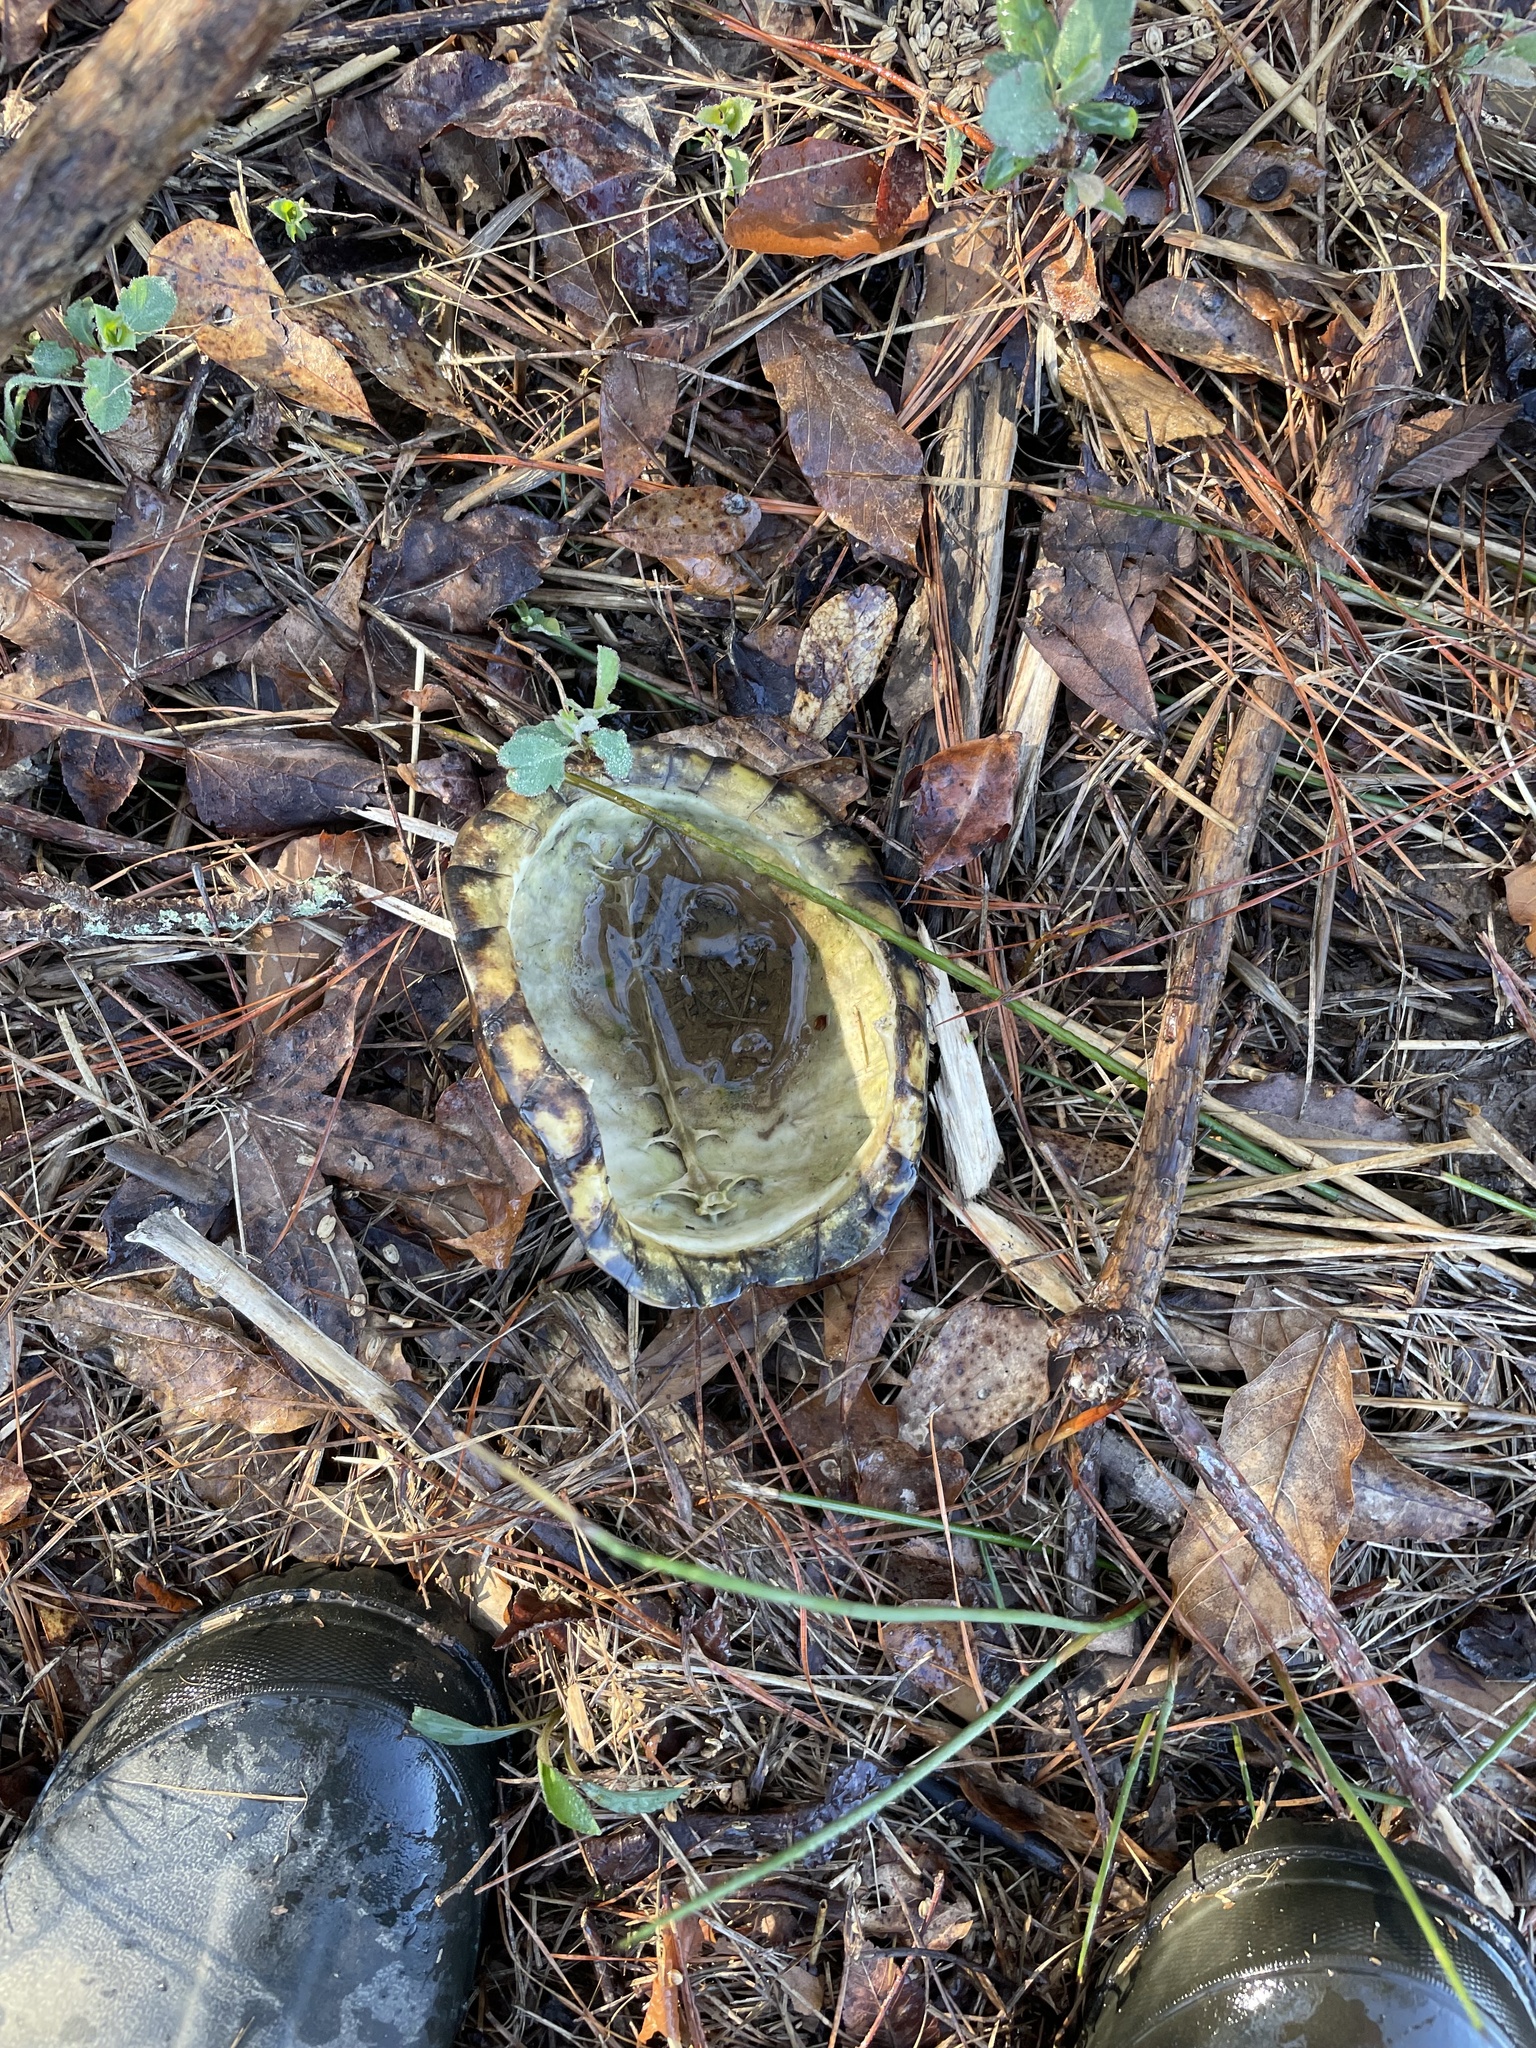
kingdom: Animalia
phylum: Chordata
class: Testudines
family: Emydidae
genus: Terrapene
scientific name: Terrapene carolina
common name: Common box turtle
